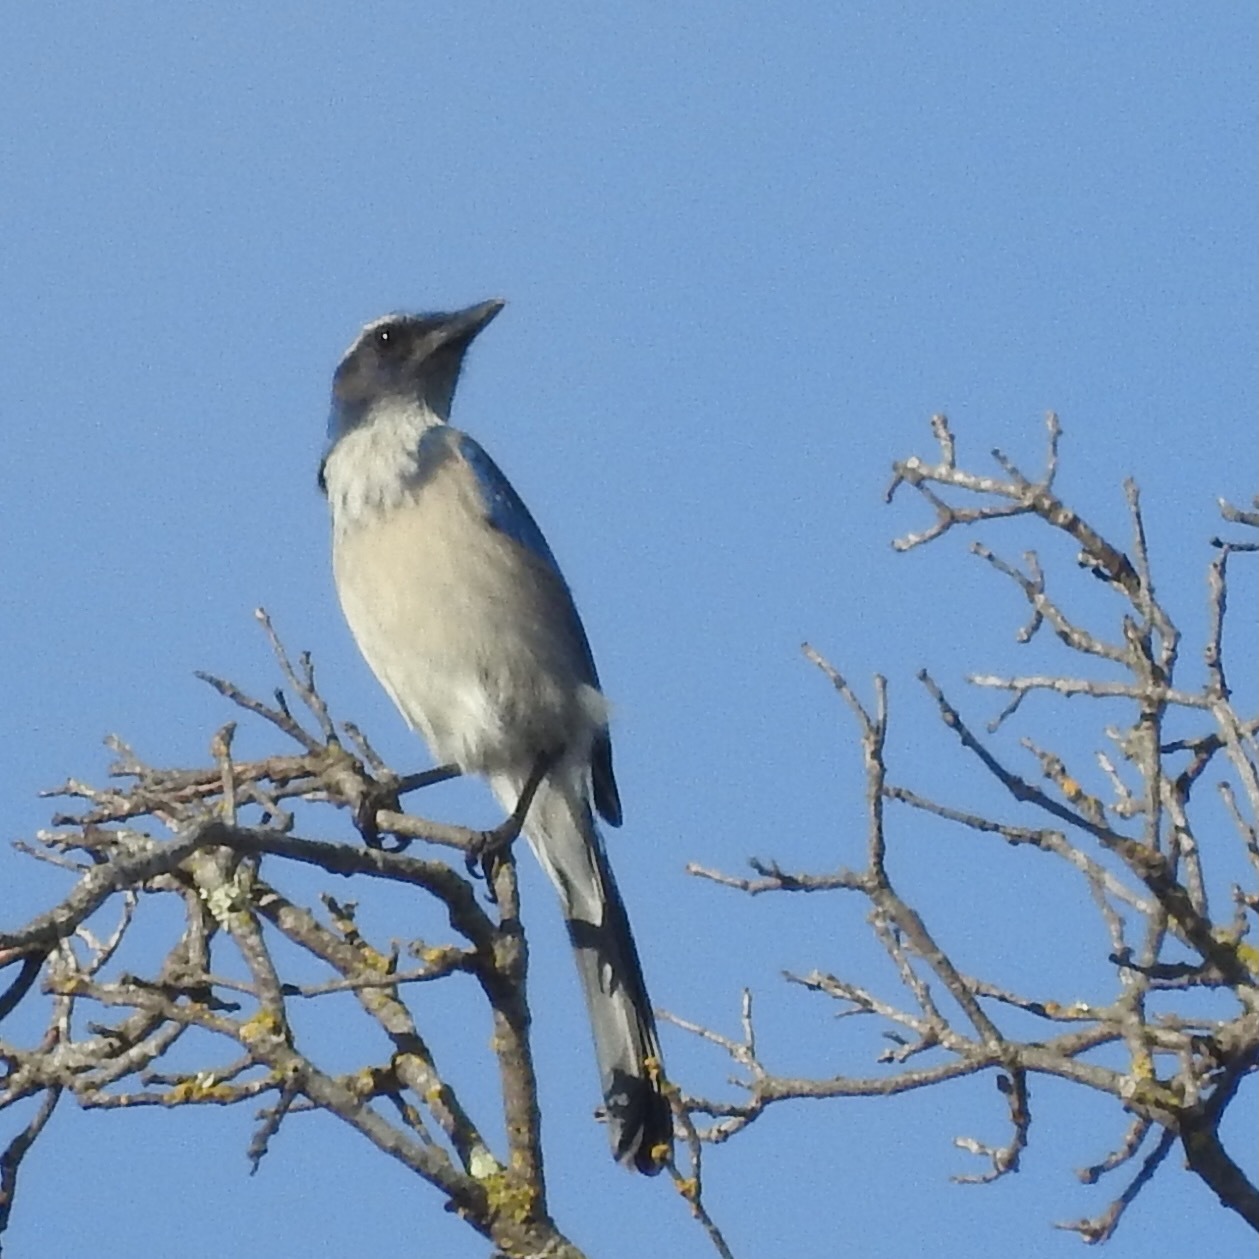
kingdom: Animalia
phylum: Chordata
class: Aves
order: Passeriformes
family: Corvidae
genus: Aphelocoma
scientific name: Aphelocoma californica
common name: California scrub-jay
